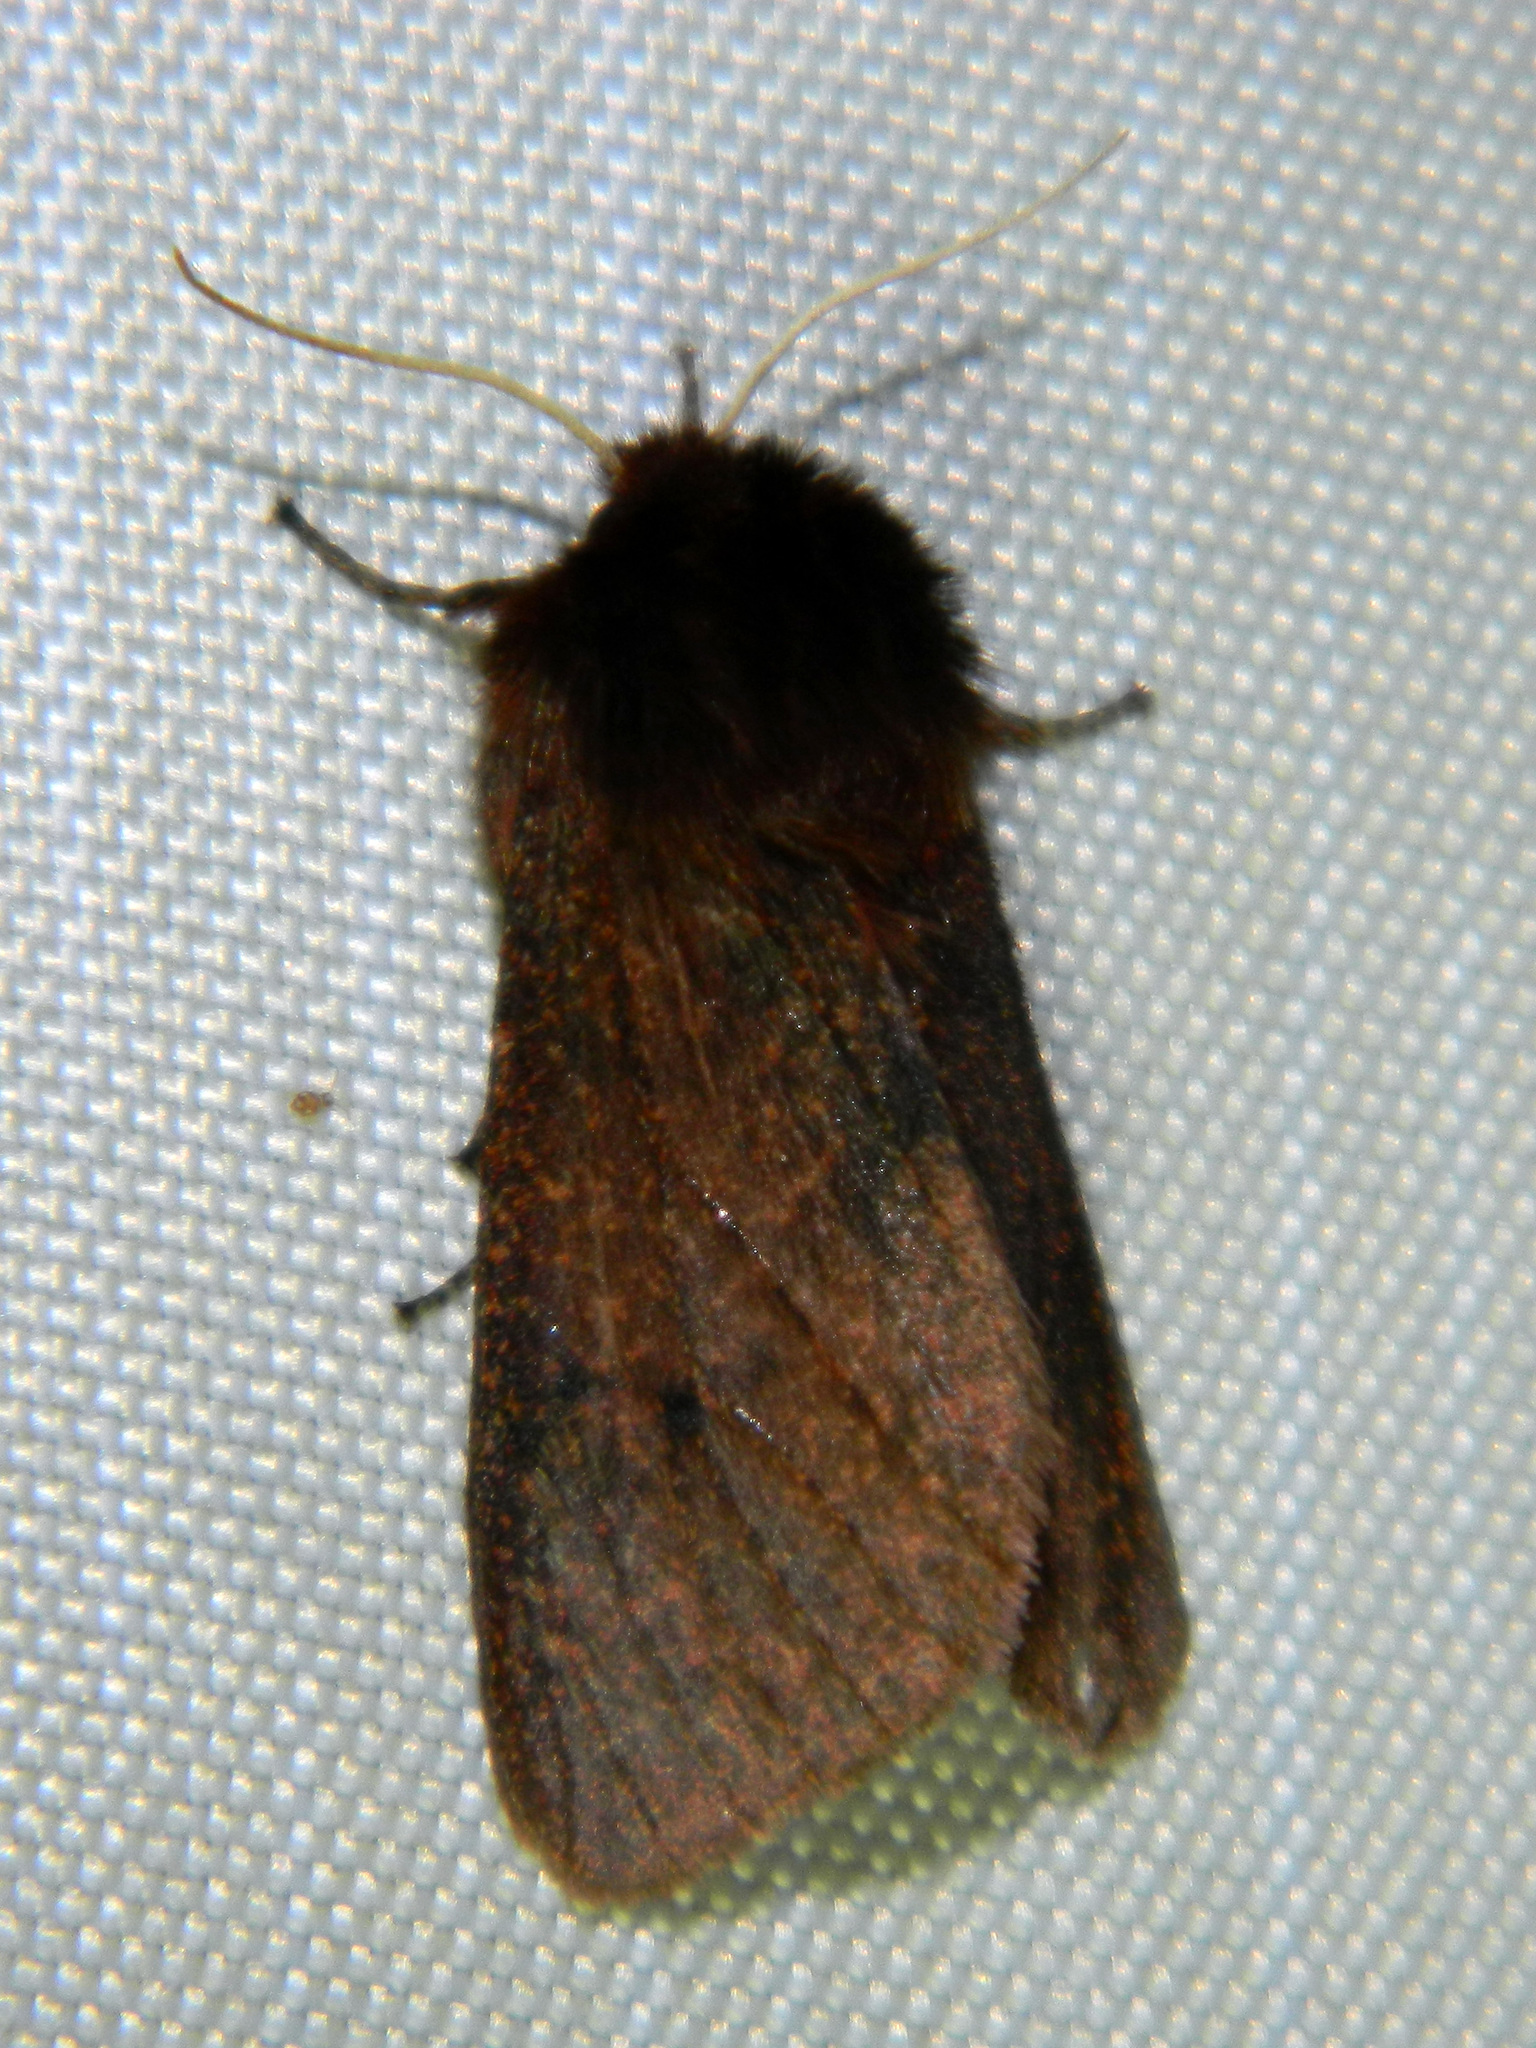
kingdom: Animalia
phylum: Arthropoda
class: Insecta
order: Lepidoptera
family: Erebidae
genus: Phragmatobia
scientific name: Phragmatobia assimilans
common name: Large ruby tiger moth
